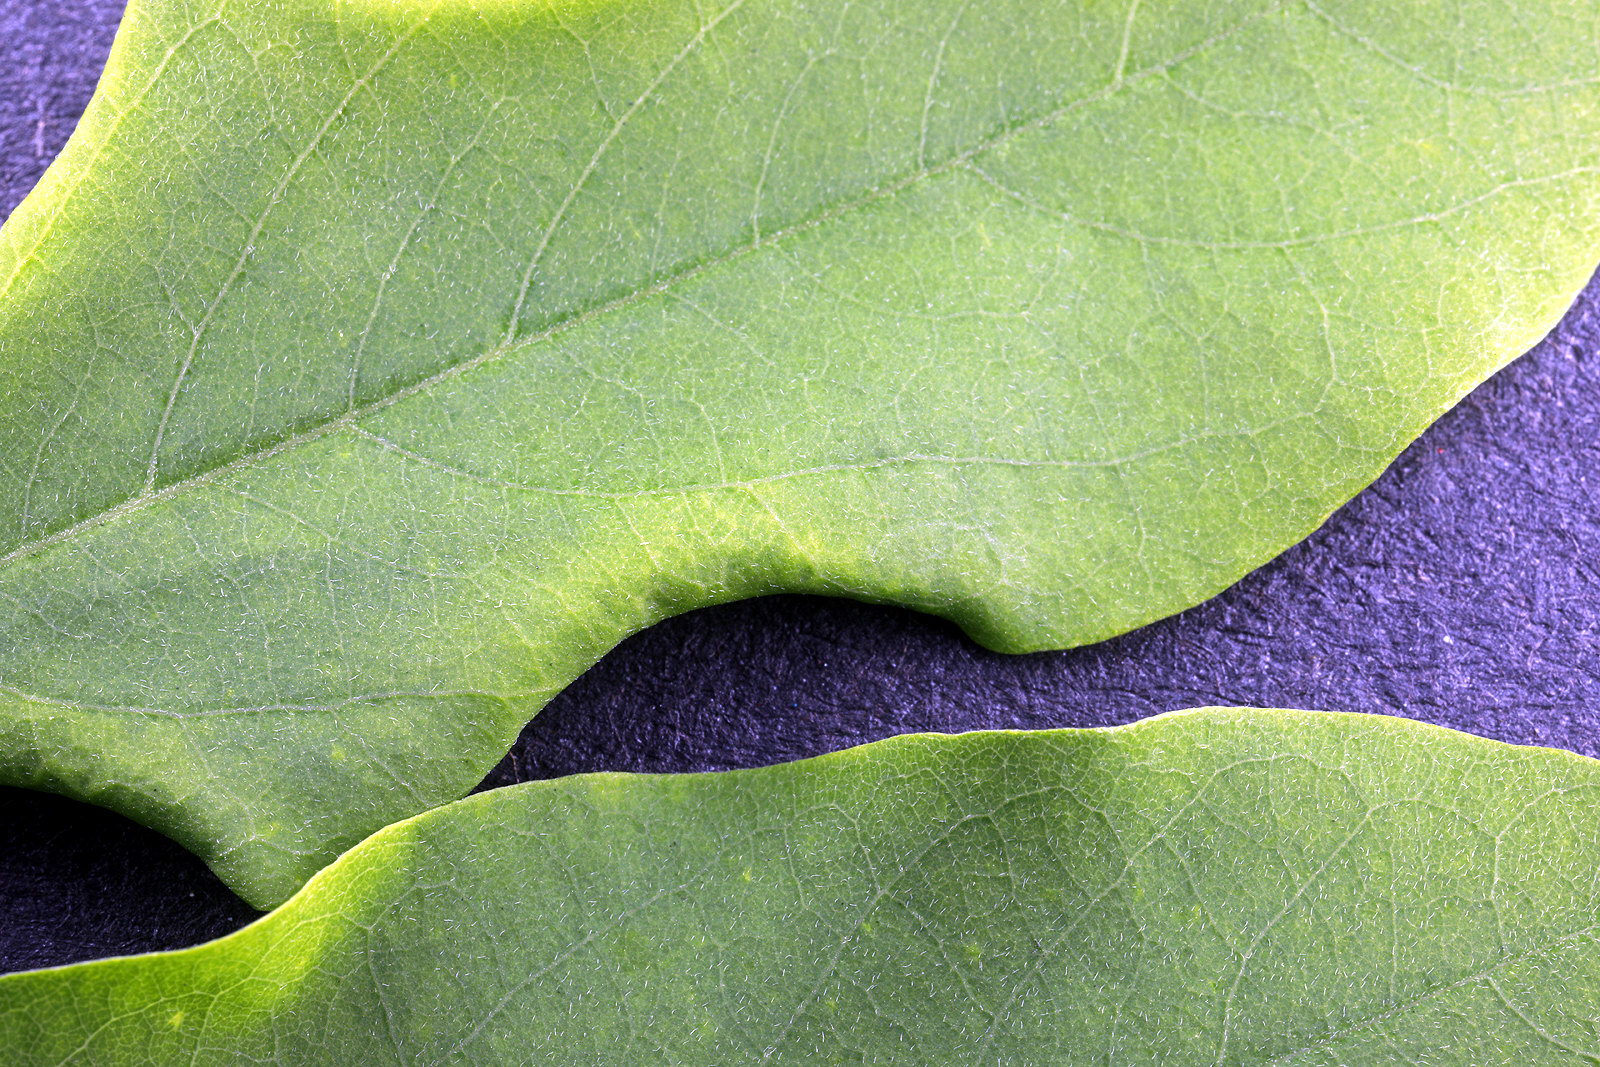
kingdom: Animalia
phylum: Arthropoda
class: Insecta
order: Diptera
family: Cecidomyiidae
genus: Obolodiplosis
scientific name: Obolodiplosis robiniae
